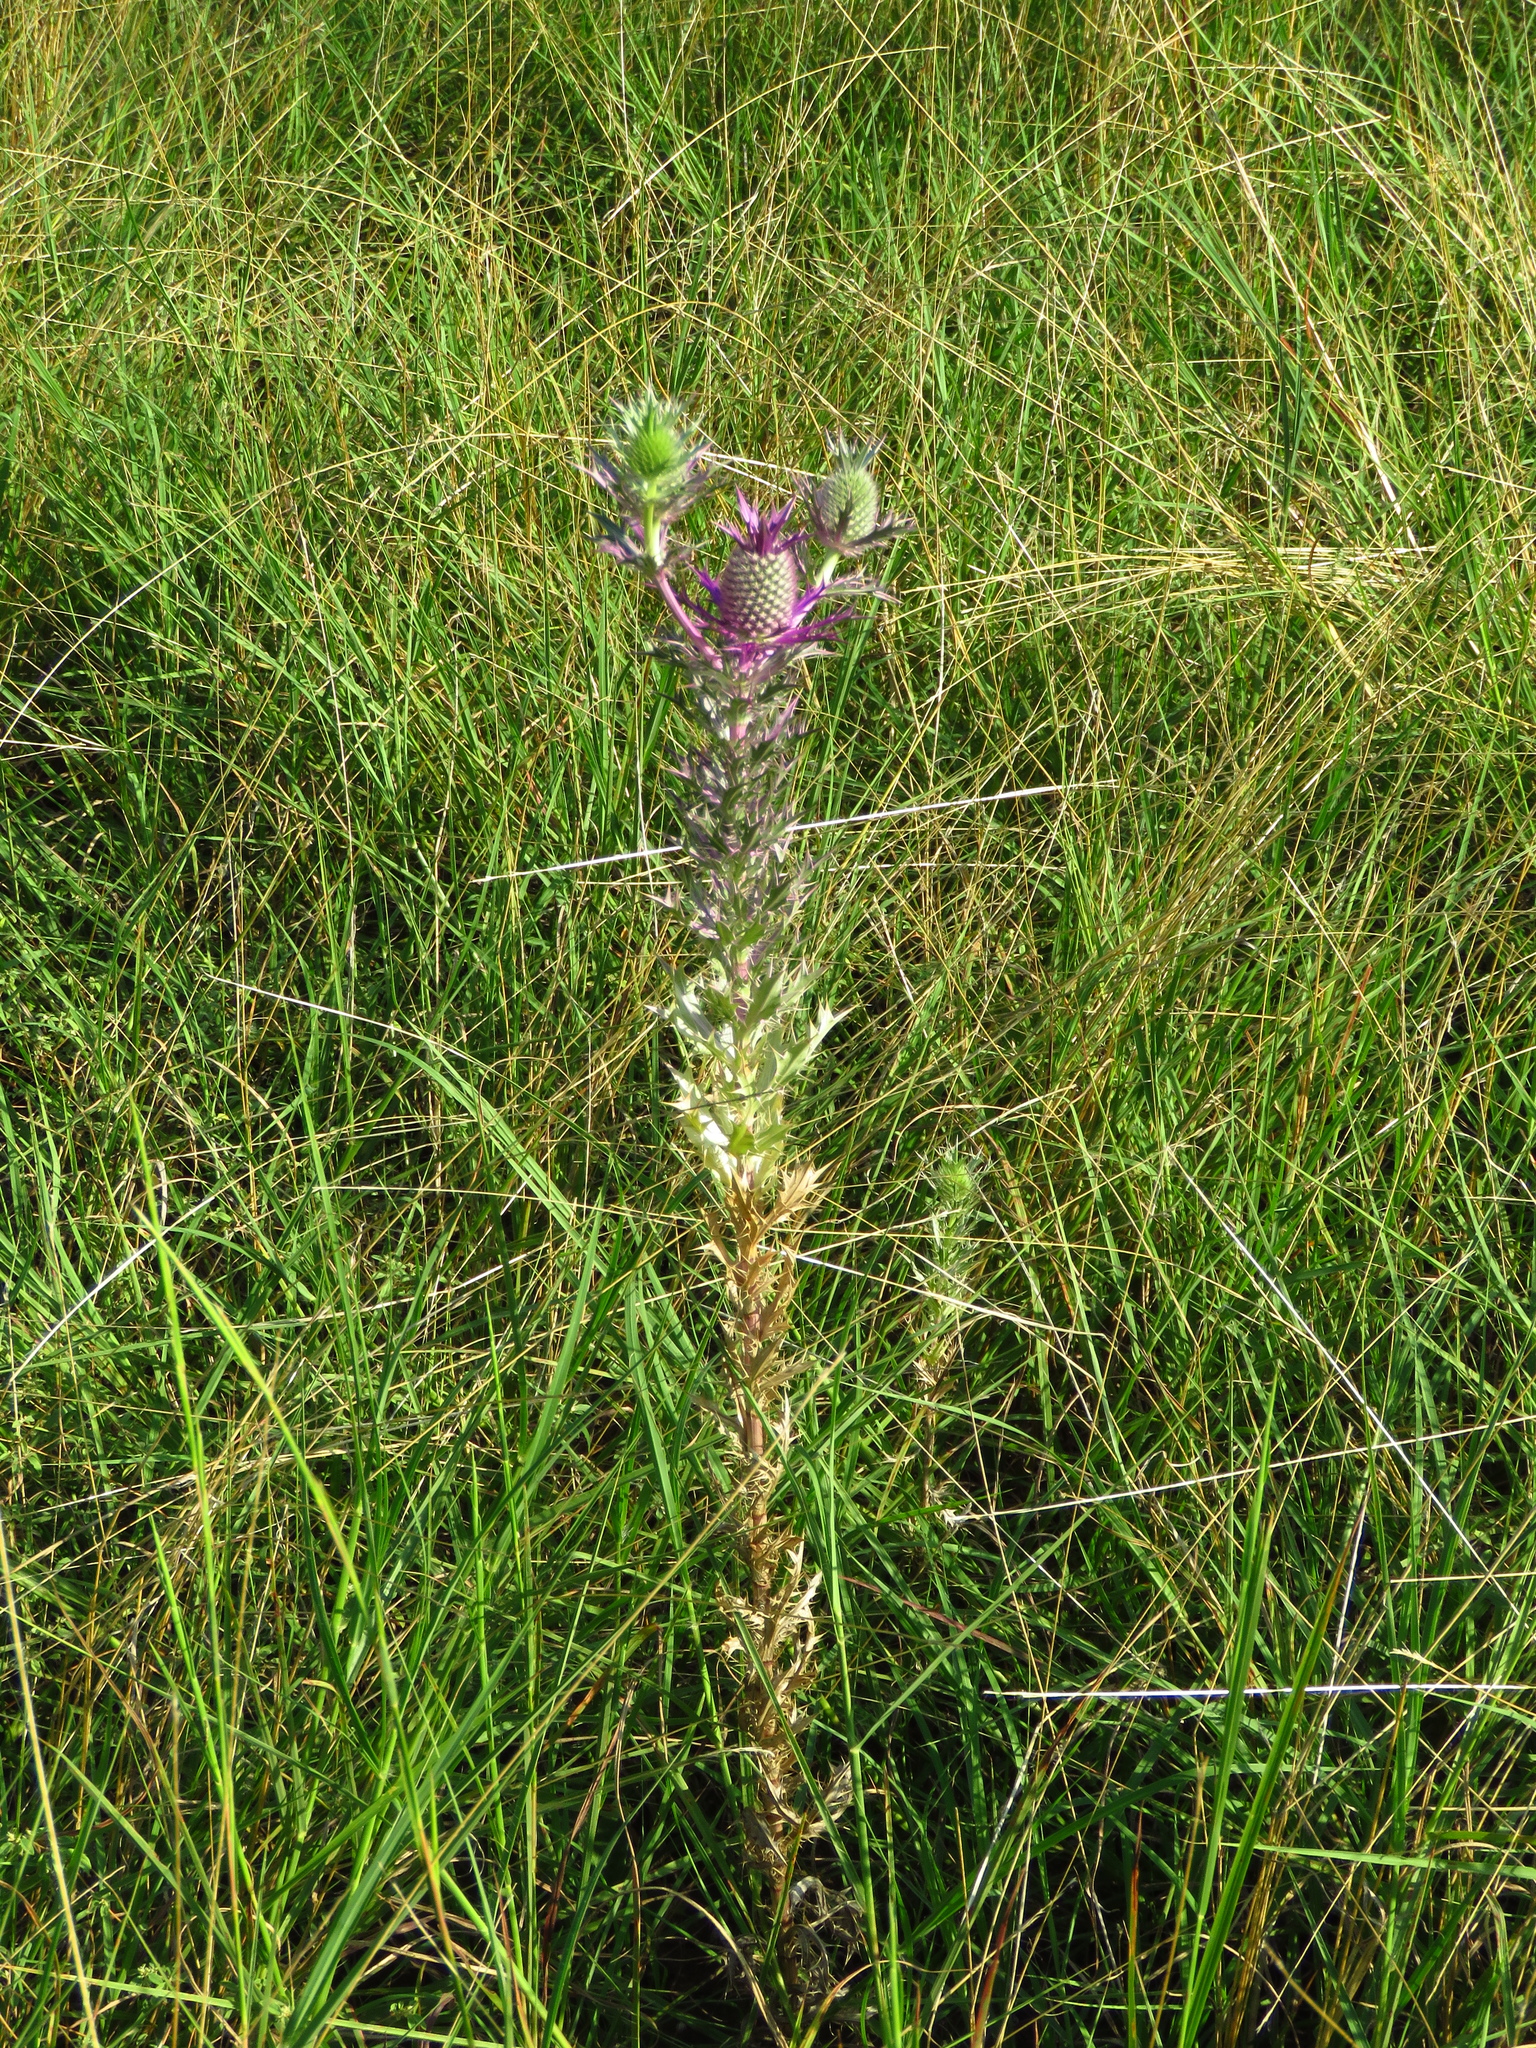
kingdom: Plantae
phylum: Tracheophyta
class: Magnoliopsida
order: Apiales
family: Apiaceae
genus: Eryngium
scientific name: Eryngium leavenworthii
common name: Leavenworth's eryngo
